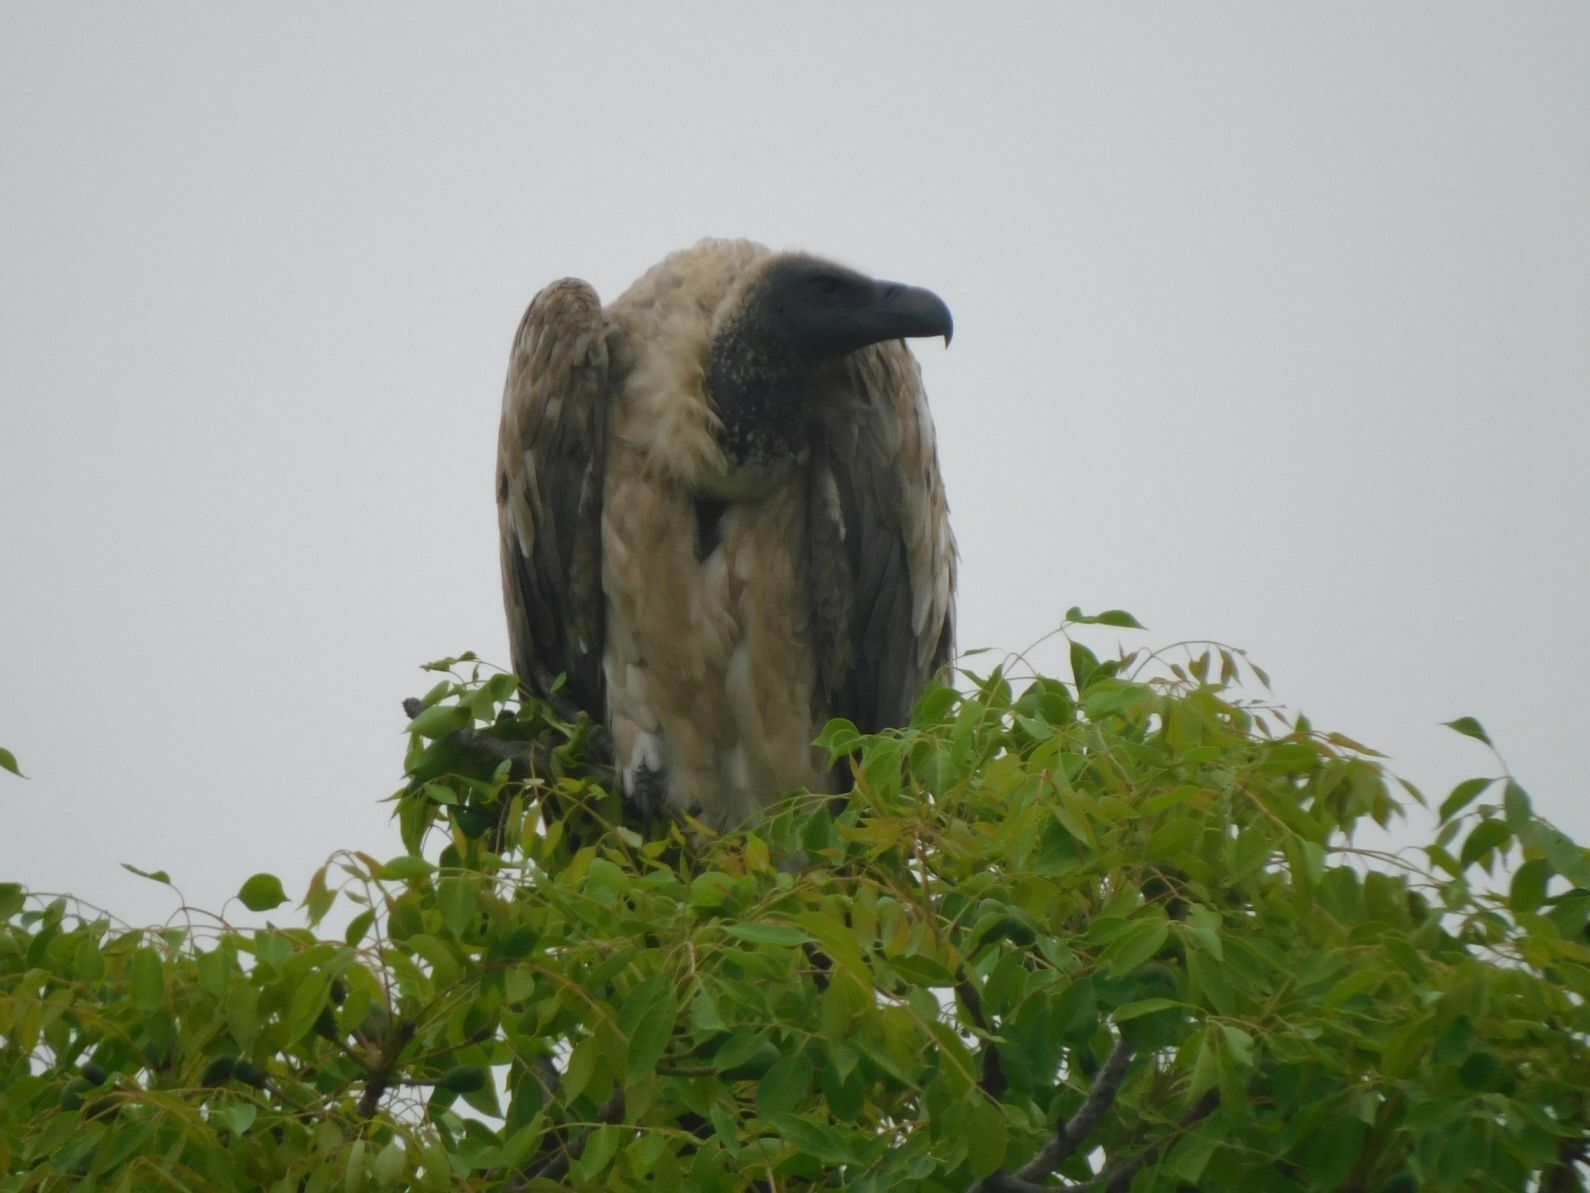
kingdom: Animalia
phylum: Chordata
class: Aves
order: Accipitriformes
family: Accipitridae
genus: Gyps
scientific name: Gyps africanus
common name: White-backed vulture
